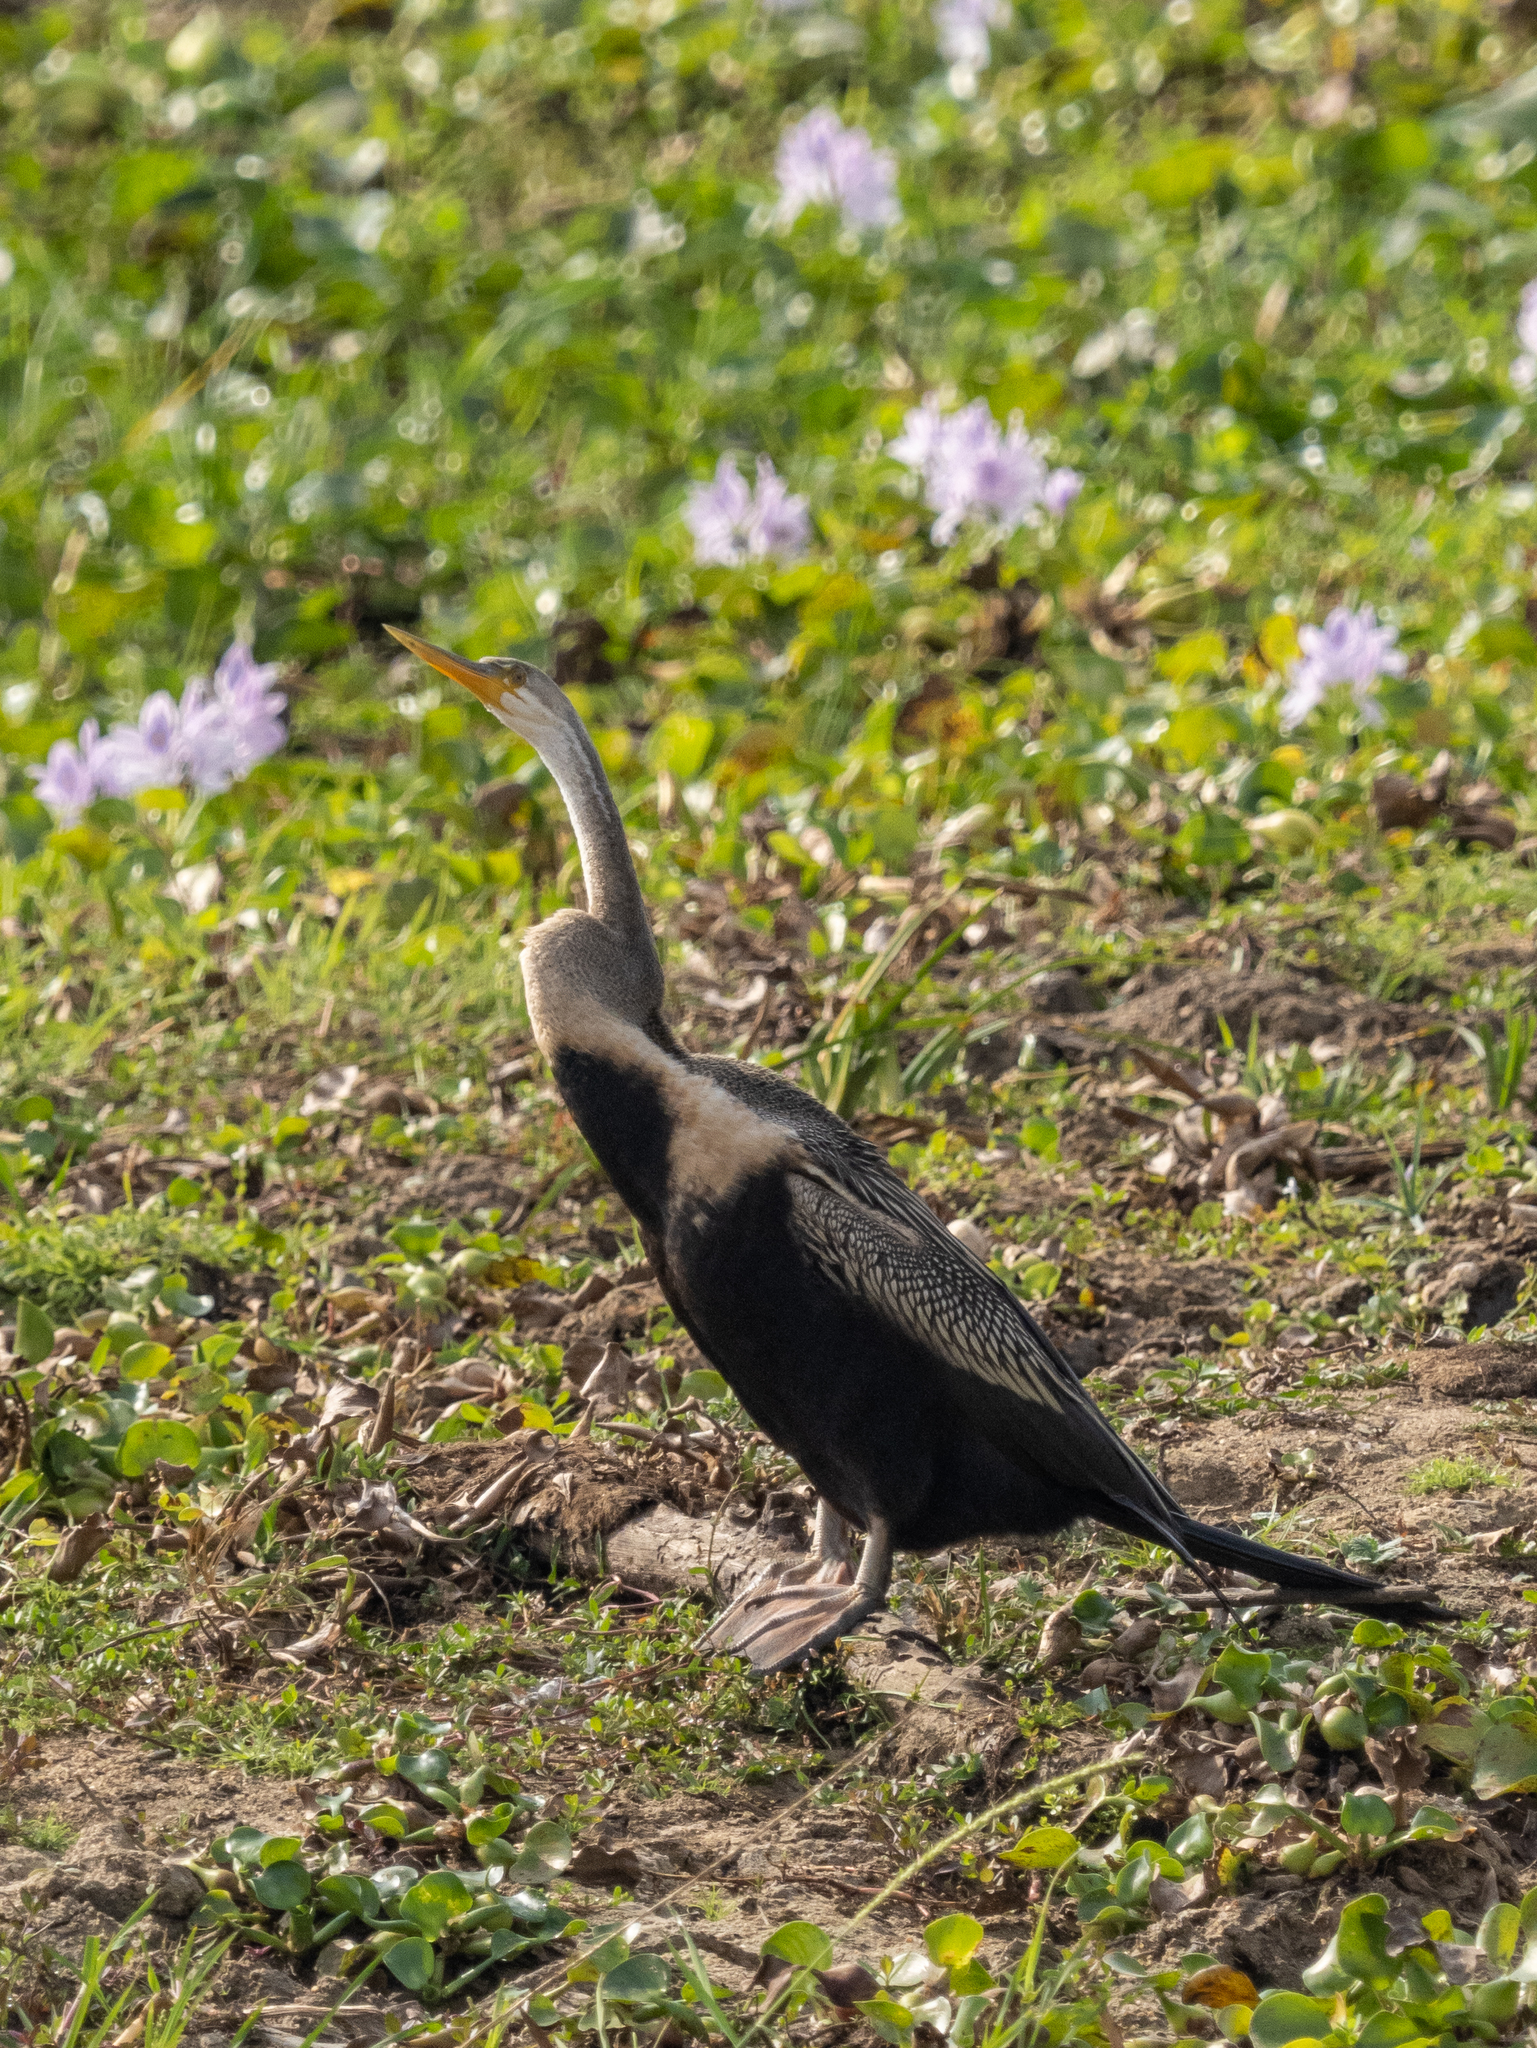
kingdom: Animalia
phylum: Chordata
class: Aves
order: Suliformes
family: Anhingidae
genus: Anhinga
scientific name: Anhinga melanogaster
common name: Oriental darter
